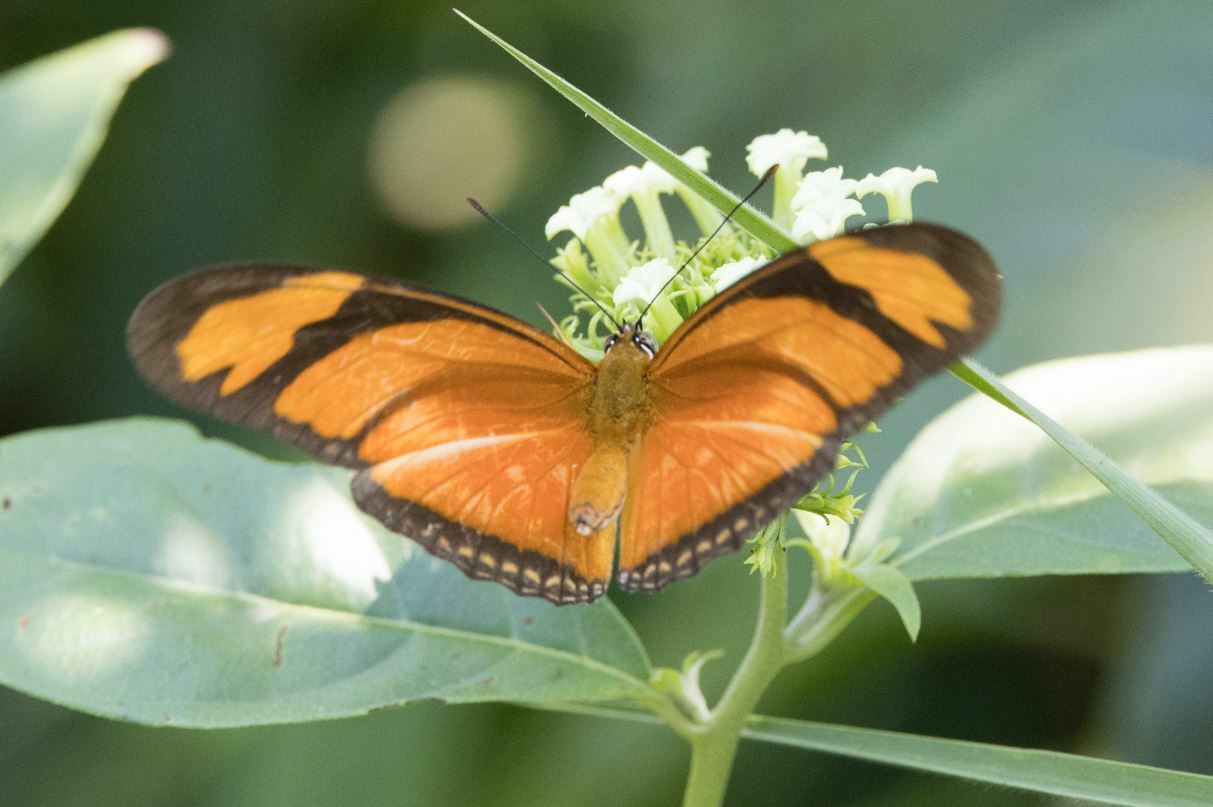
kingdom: Animalia
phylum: Arthropoda
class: Insecta
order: Lepidoptera
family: Nymphalidae
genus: Dryas
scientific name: Dryas iulia
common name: Flambeau
